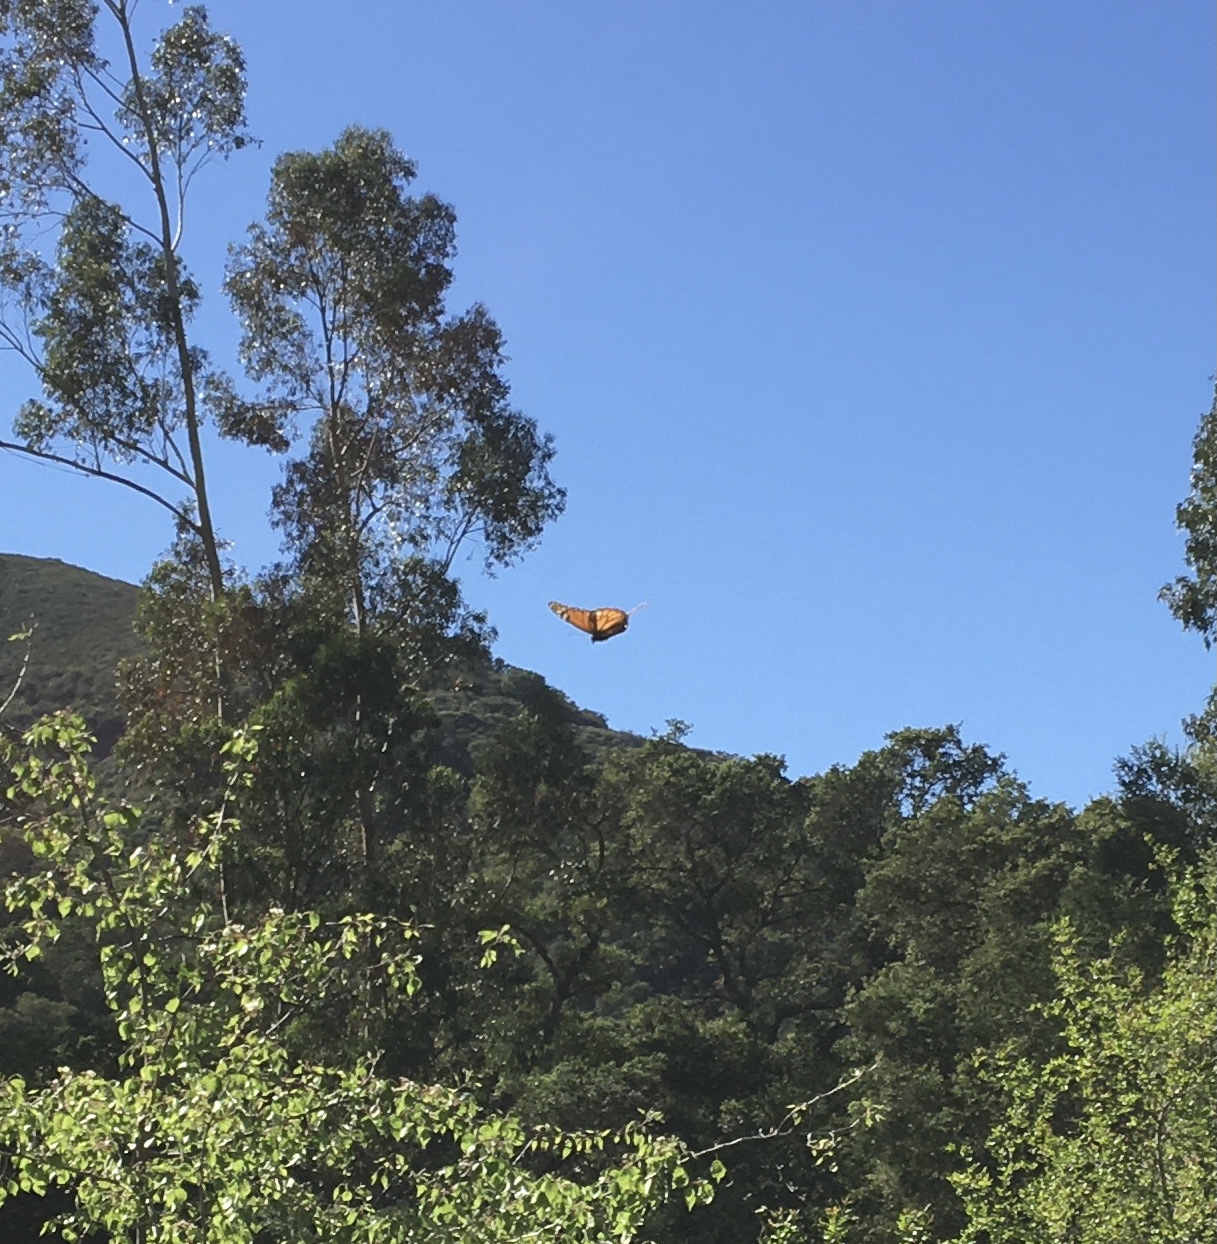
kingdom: Animalia
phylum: Arthropoda
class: Insecta
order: Lepidoptera
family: Nymphalidae
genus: Danaus
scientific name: Danaus plexippus
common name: Monarch
